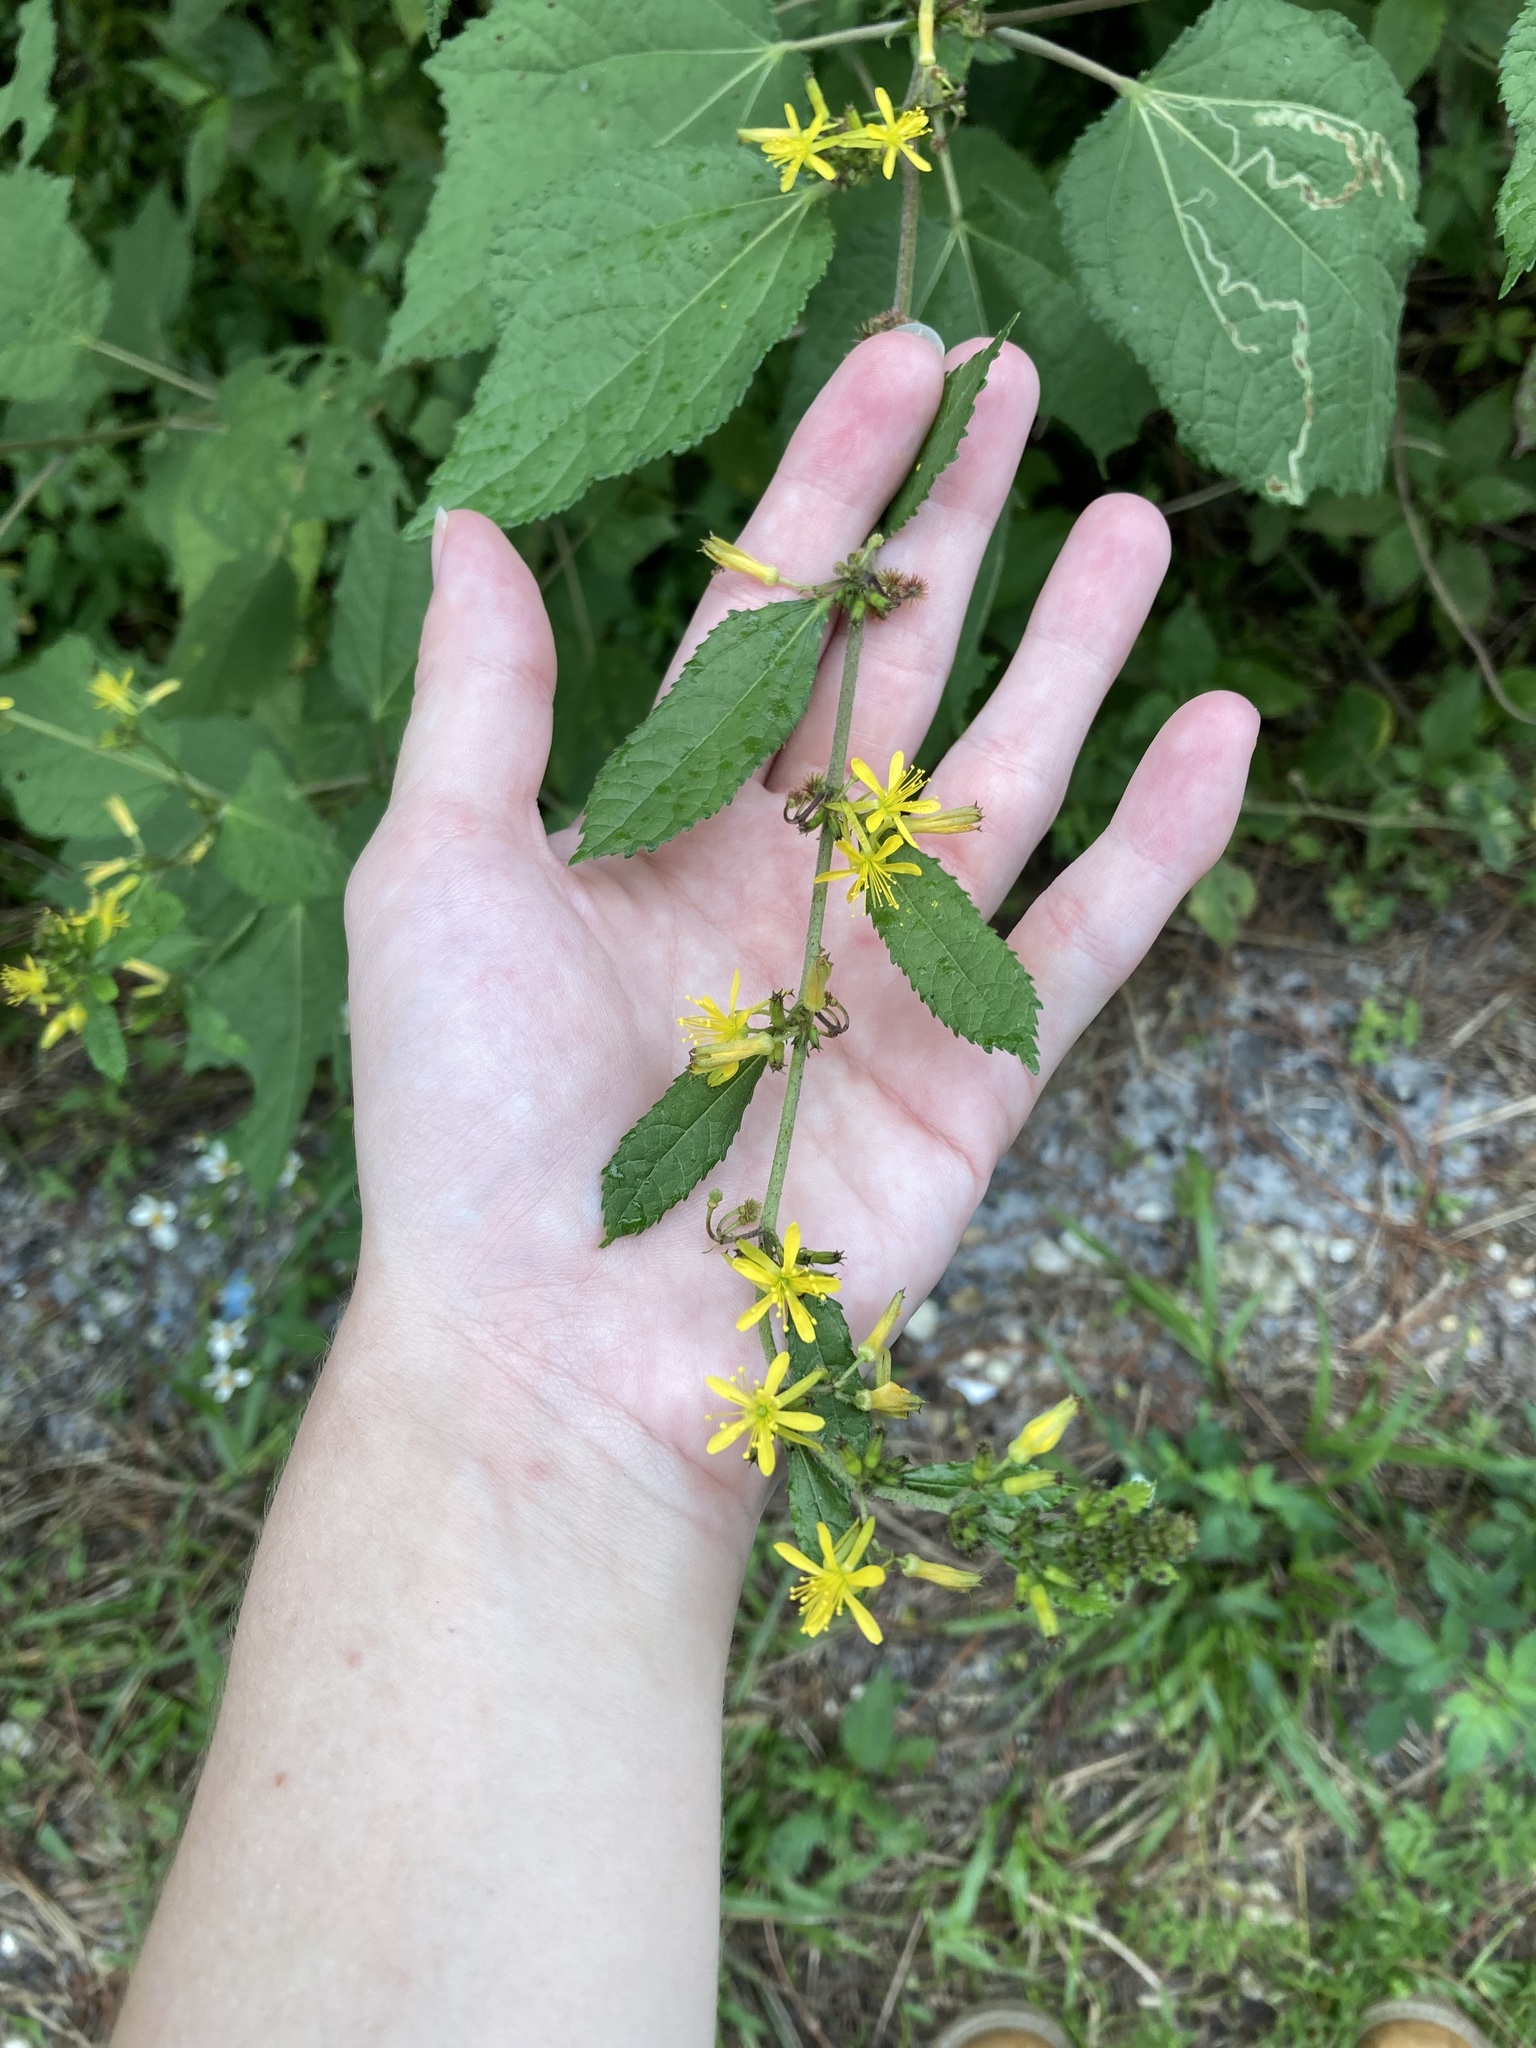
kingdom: Plantae
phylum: Tracheophyta
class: Magnoliopsida
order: Malvales
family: Malvaceae
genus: Triumfetta
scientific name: Triumfetta semitriloba
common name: Sacramento burbark
